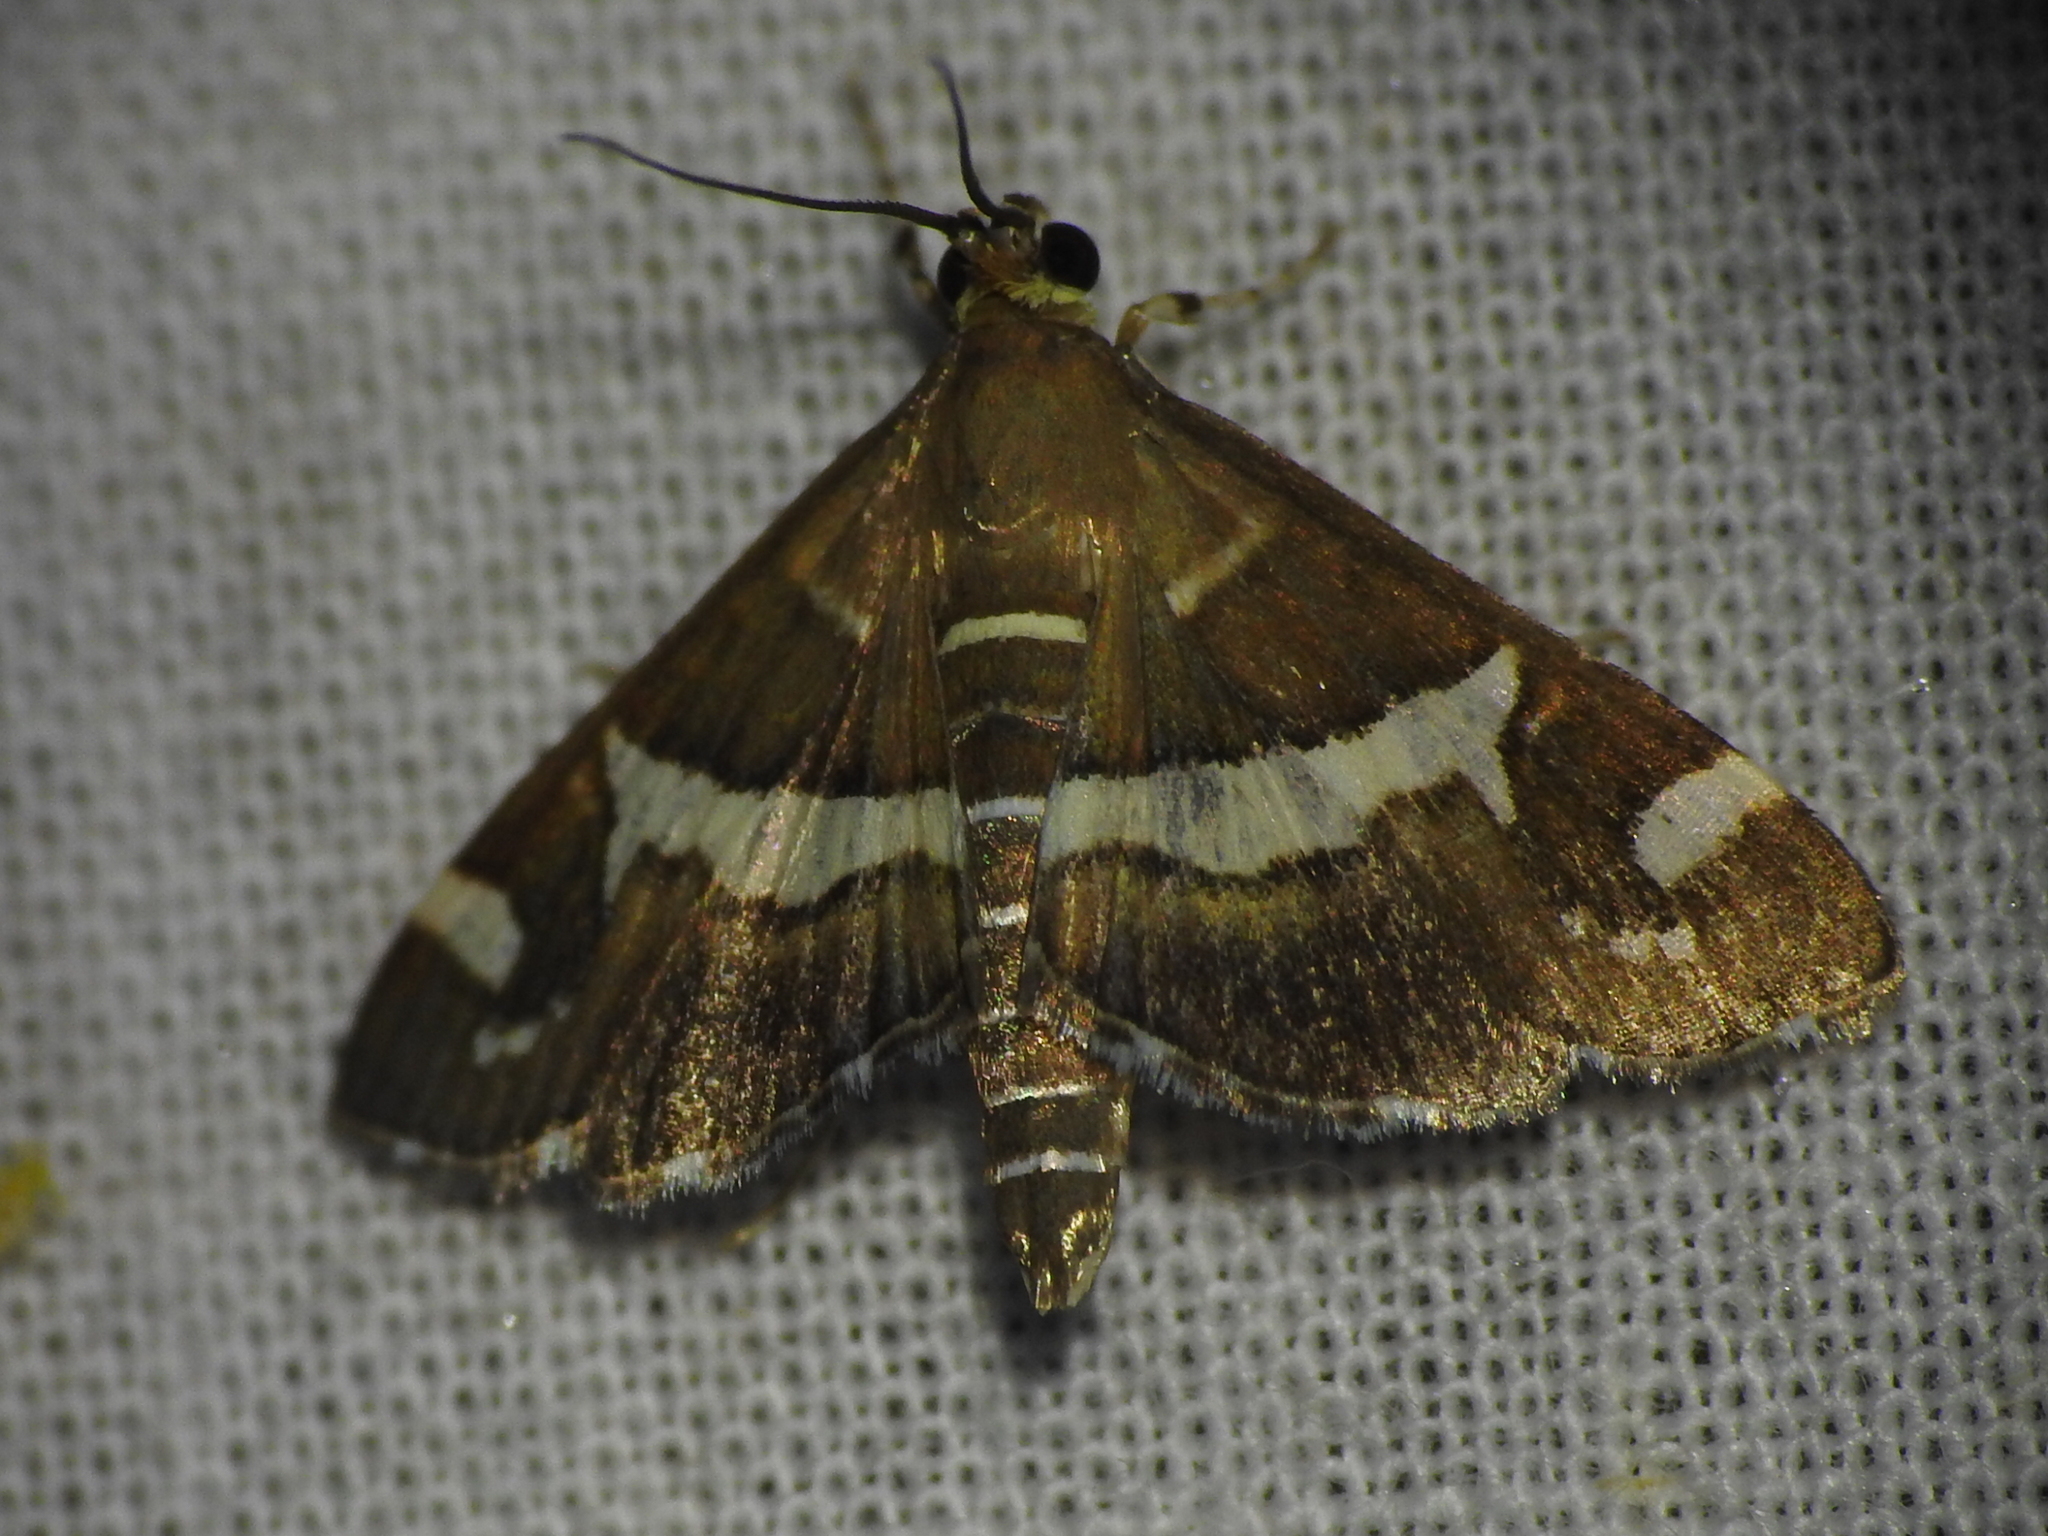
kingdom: Animalia
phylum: Arthropoda
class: Insecta
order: Lepidoptera
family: Crambidae
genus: Spoladea
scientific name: Spoladea recurvalis
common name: Beet webworm moth
